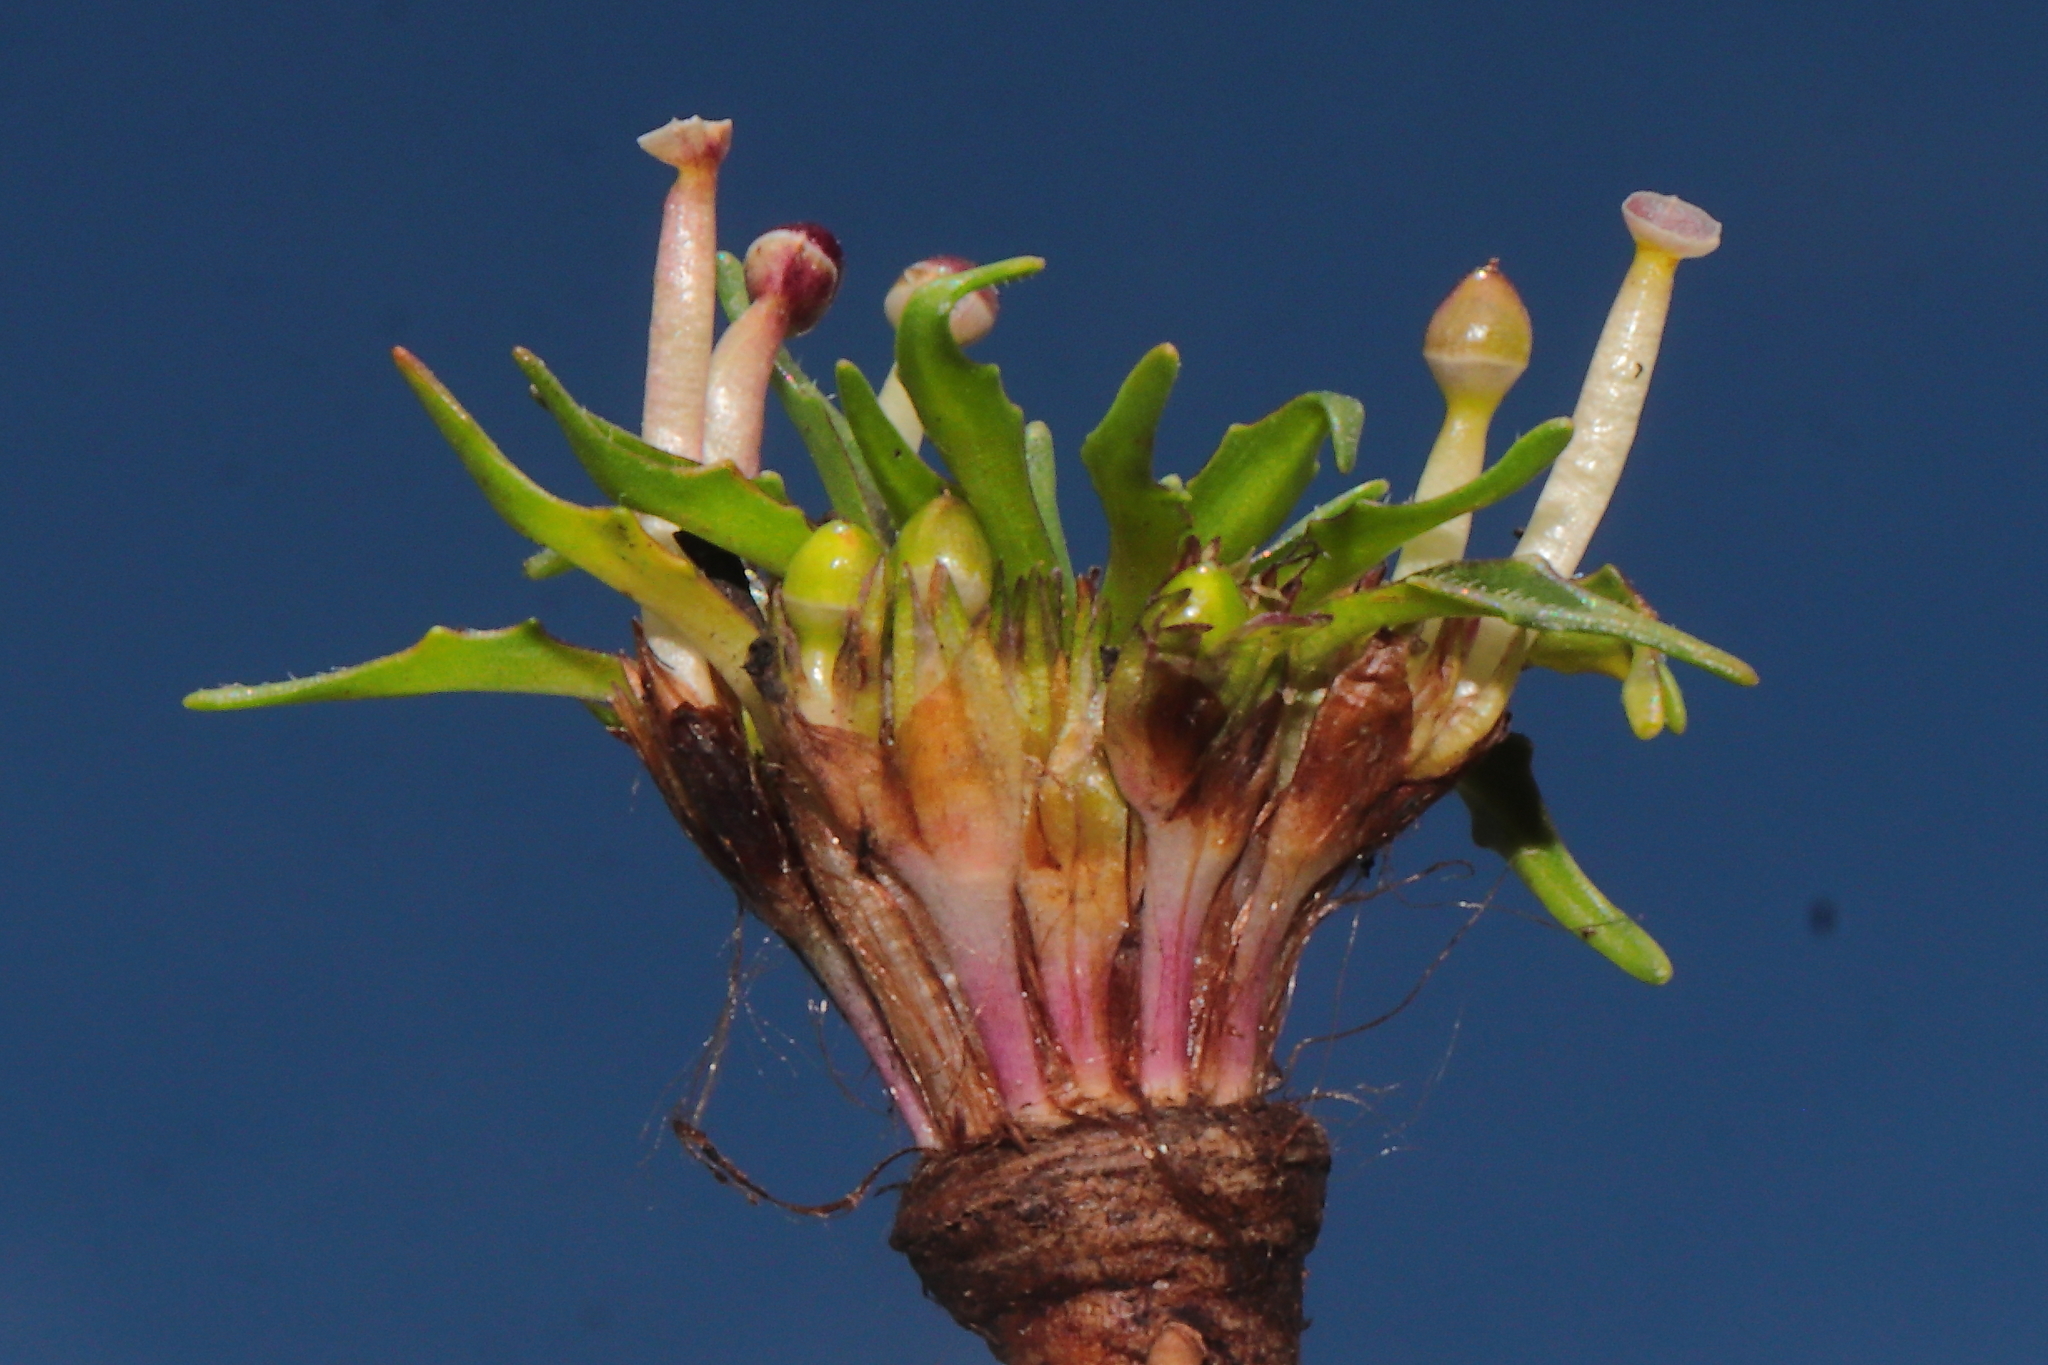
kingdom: Plantae
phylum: Tracheophyta
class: Magnoliopsida
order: Lamiales
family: Plantaginaceae
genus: Plantago
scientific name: Plantago tubulosa
